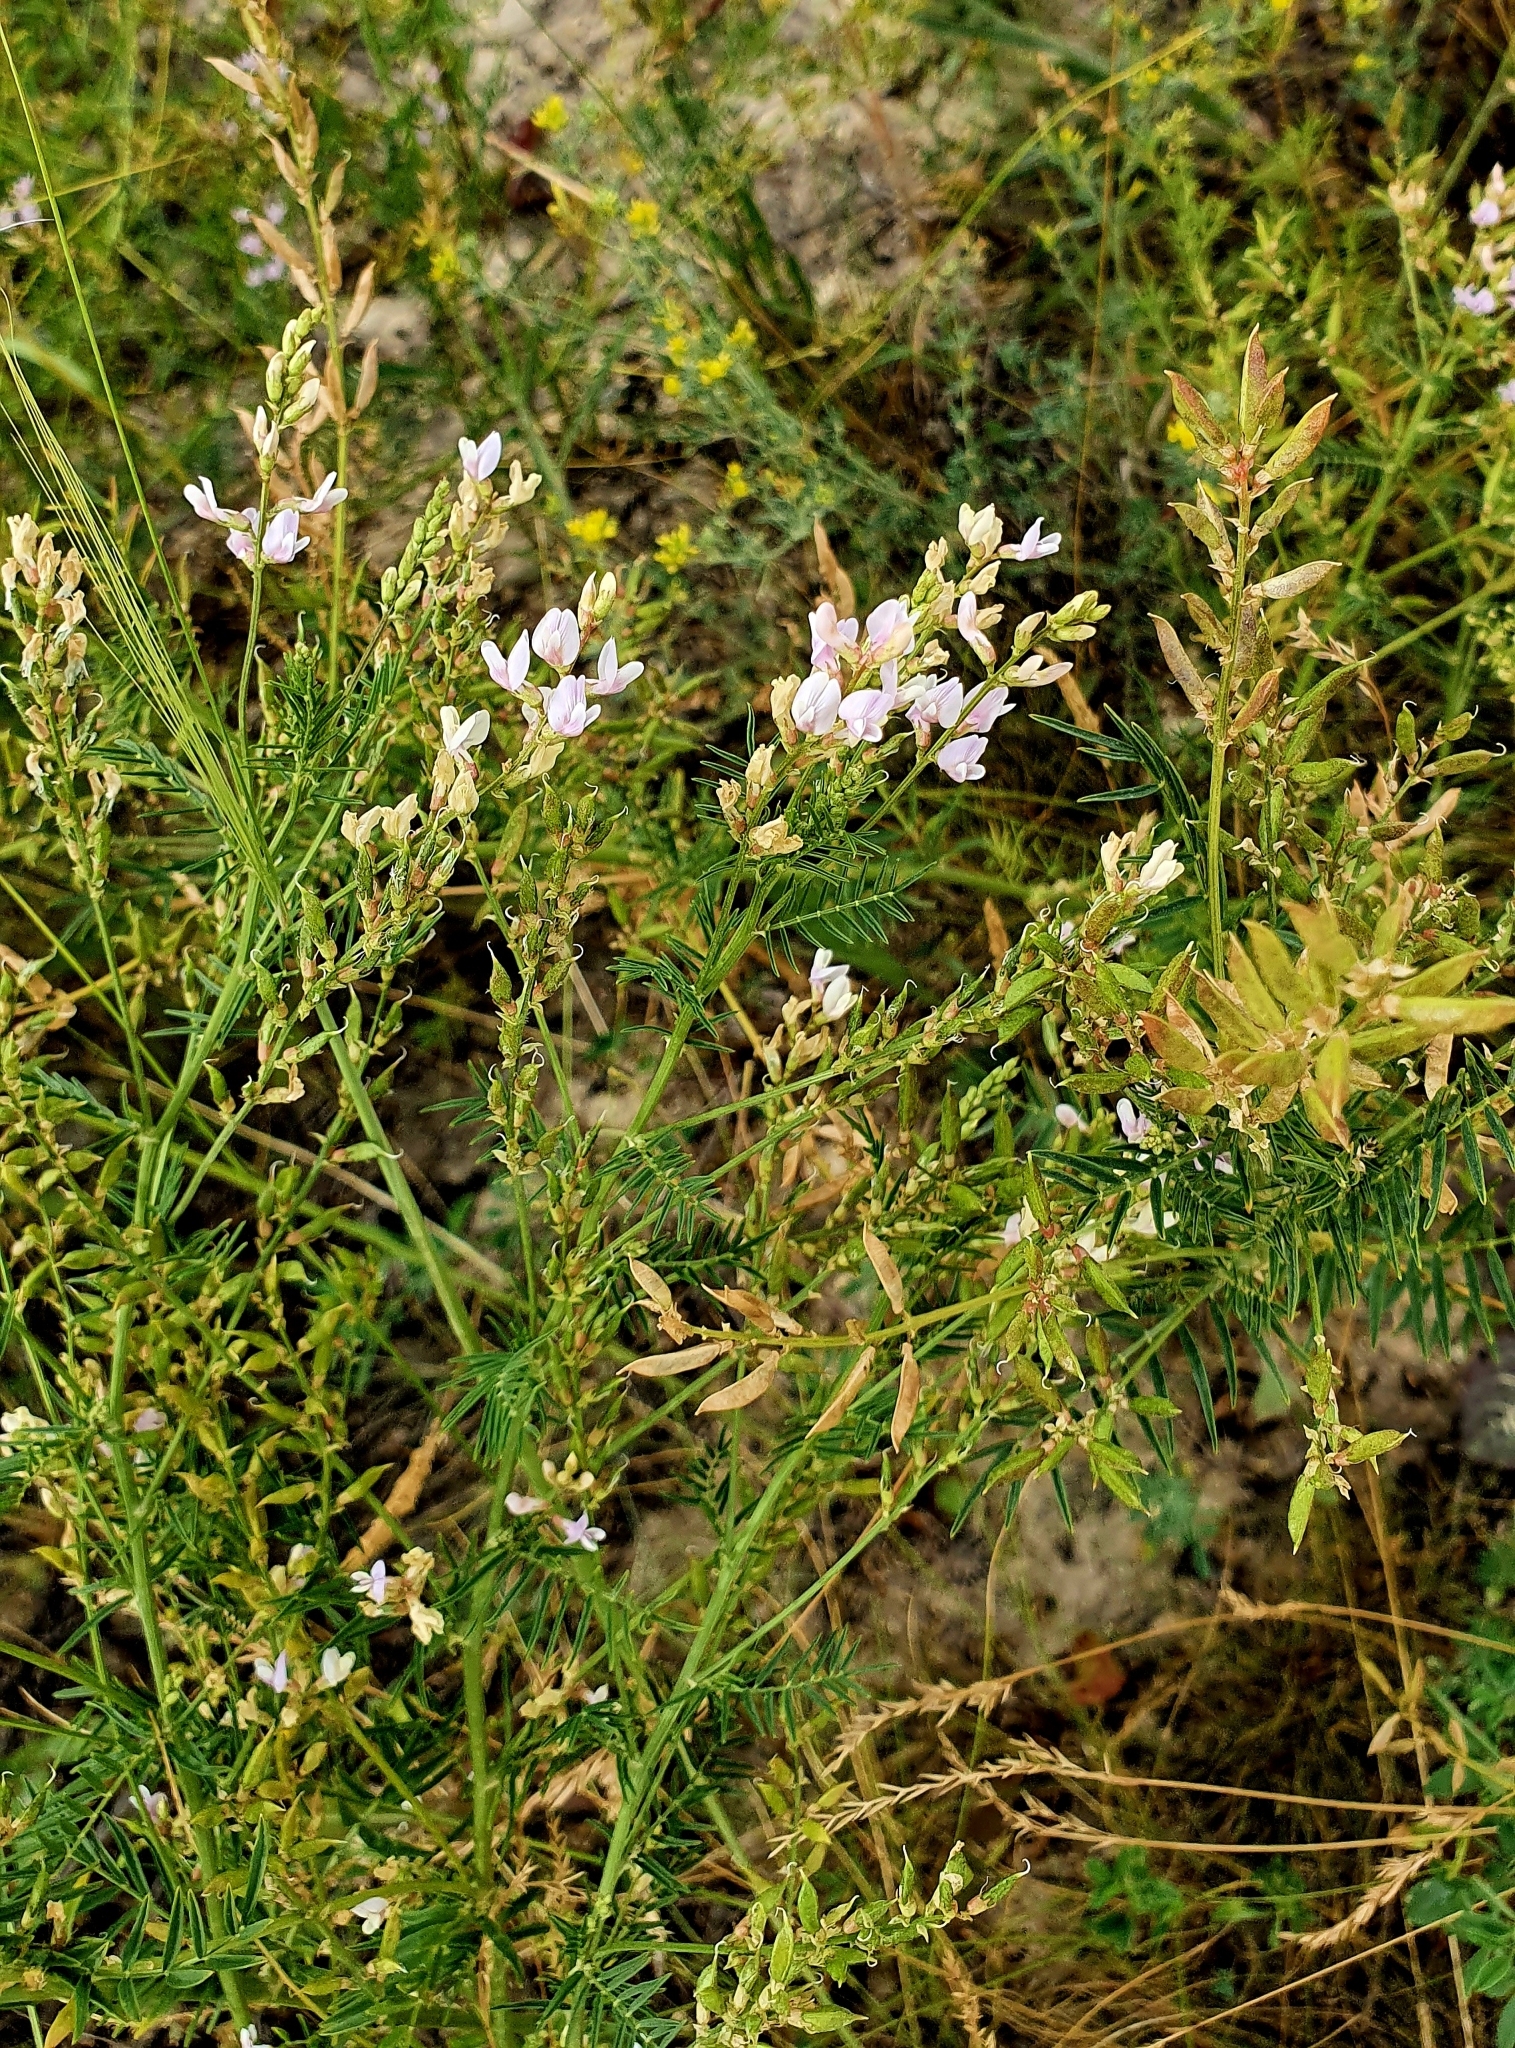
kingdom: Plantae
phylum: Tracheophyta
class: Magnoliopsida
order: Fabales
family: Fabaceae
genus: Astragalus
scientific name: Astragalus sulcatus
